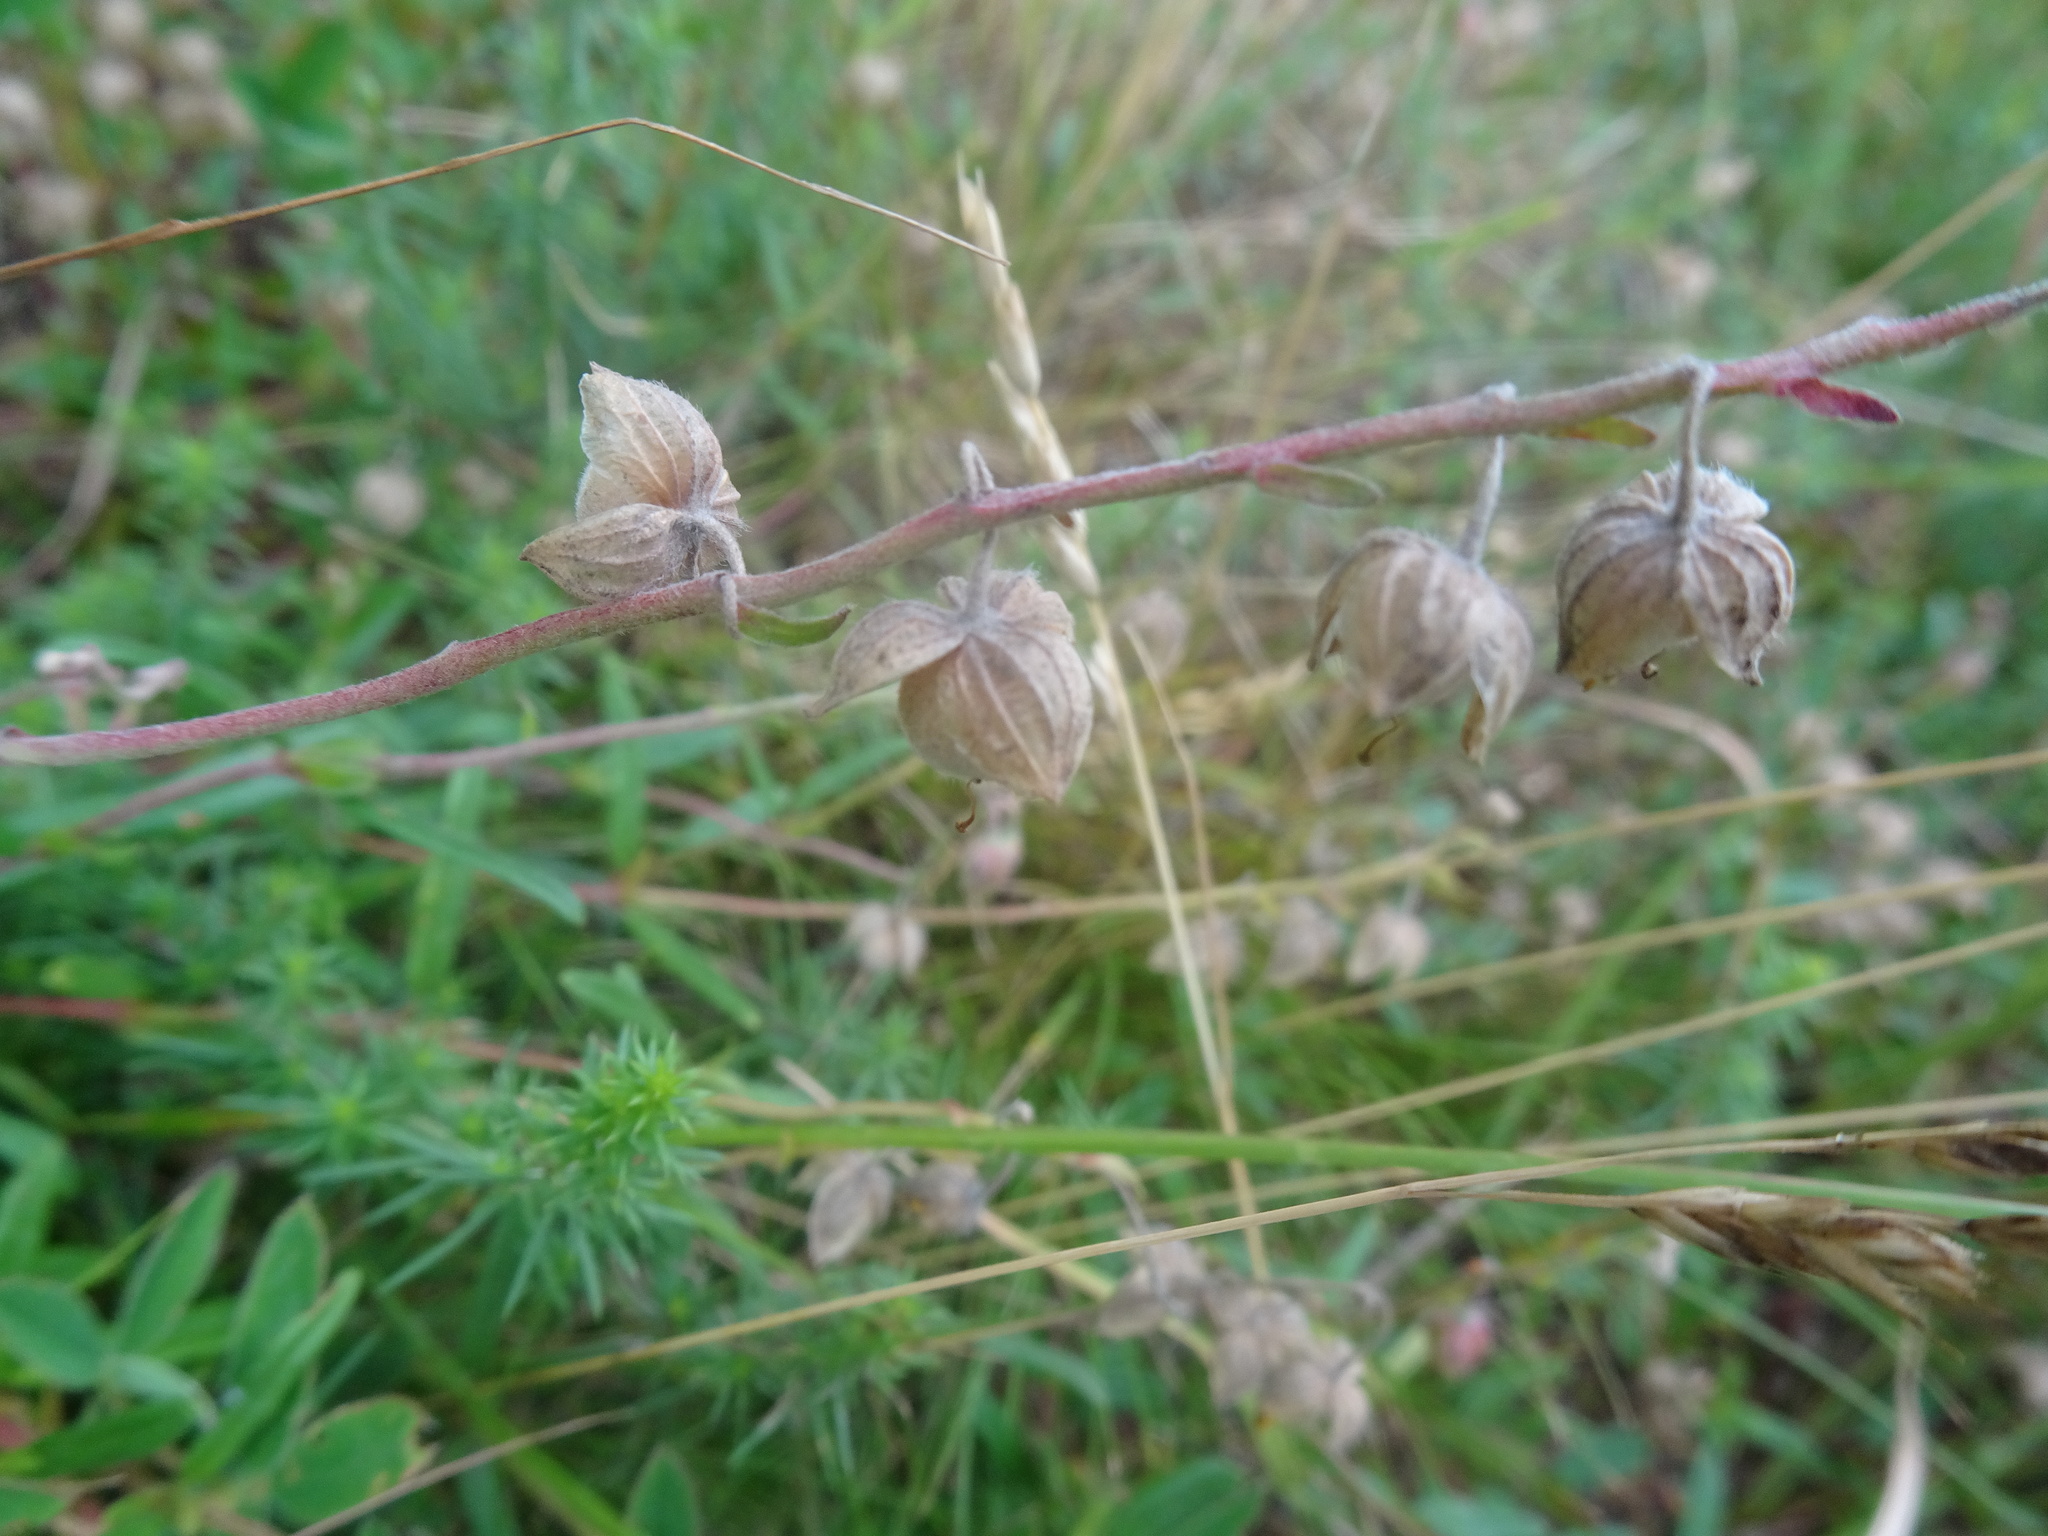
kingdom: Plantae
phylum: Tracheophyta
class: Magnoliopsida
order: Malvales
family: Cistaceae
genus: Helianthemum
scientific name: Helianthemum nummularium
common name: Common rock-rose
